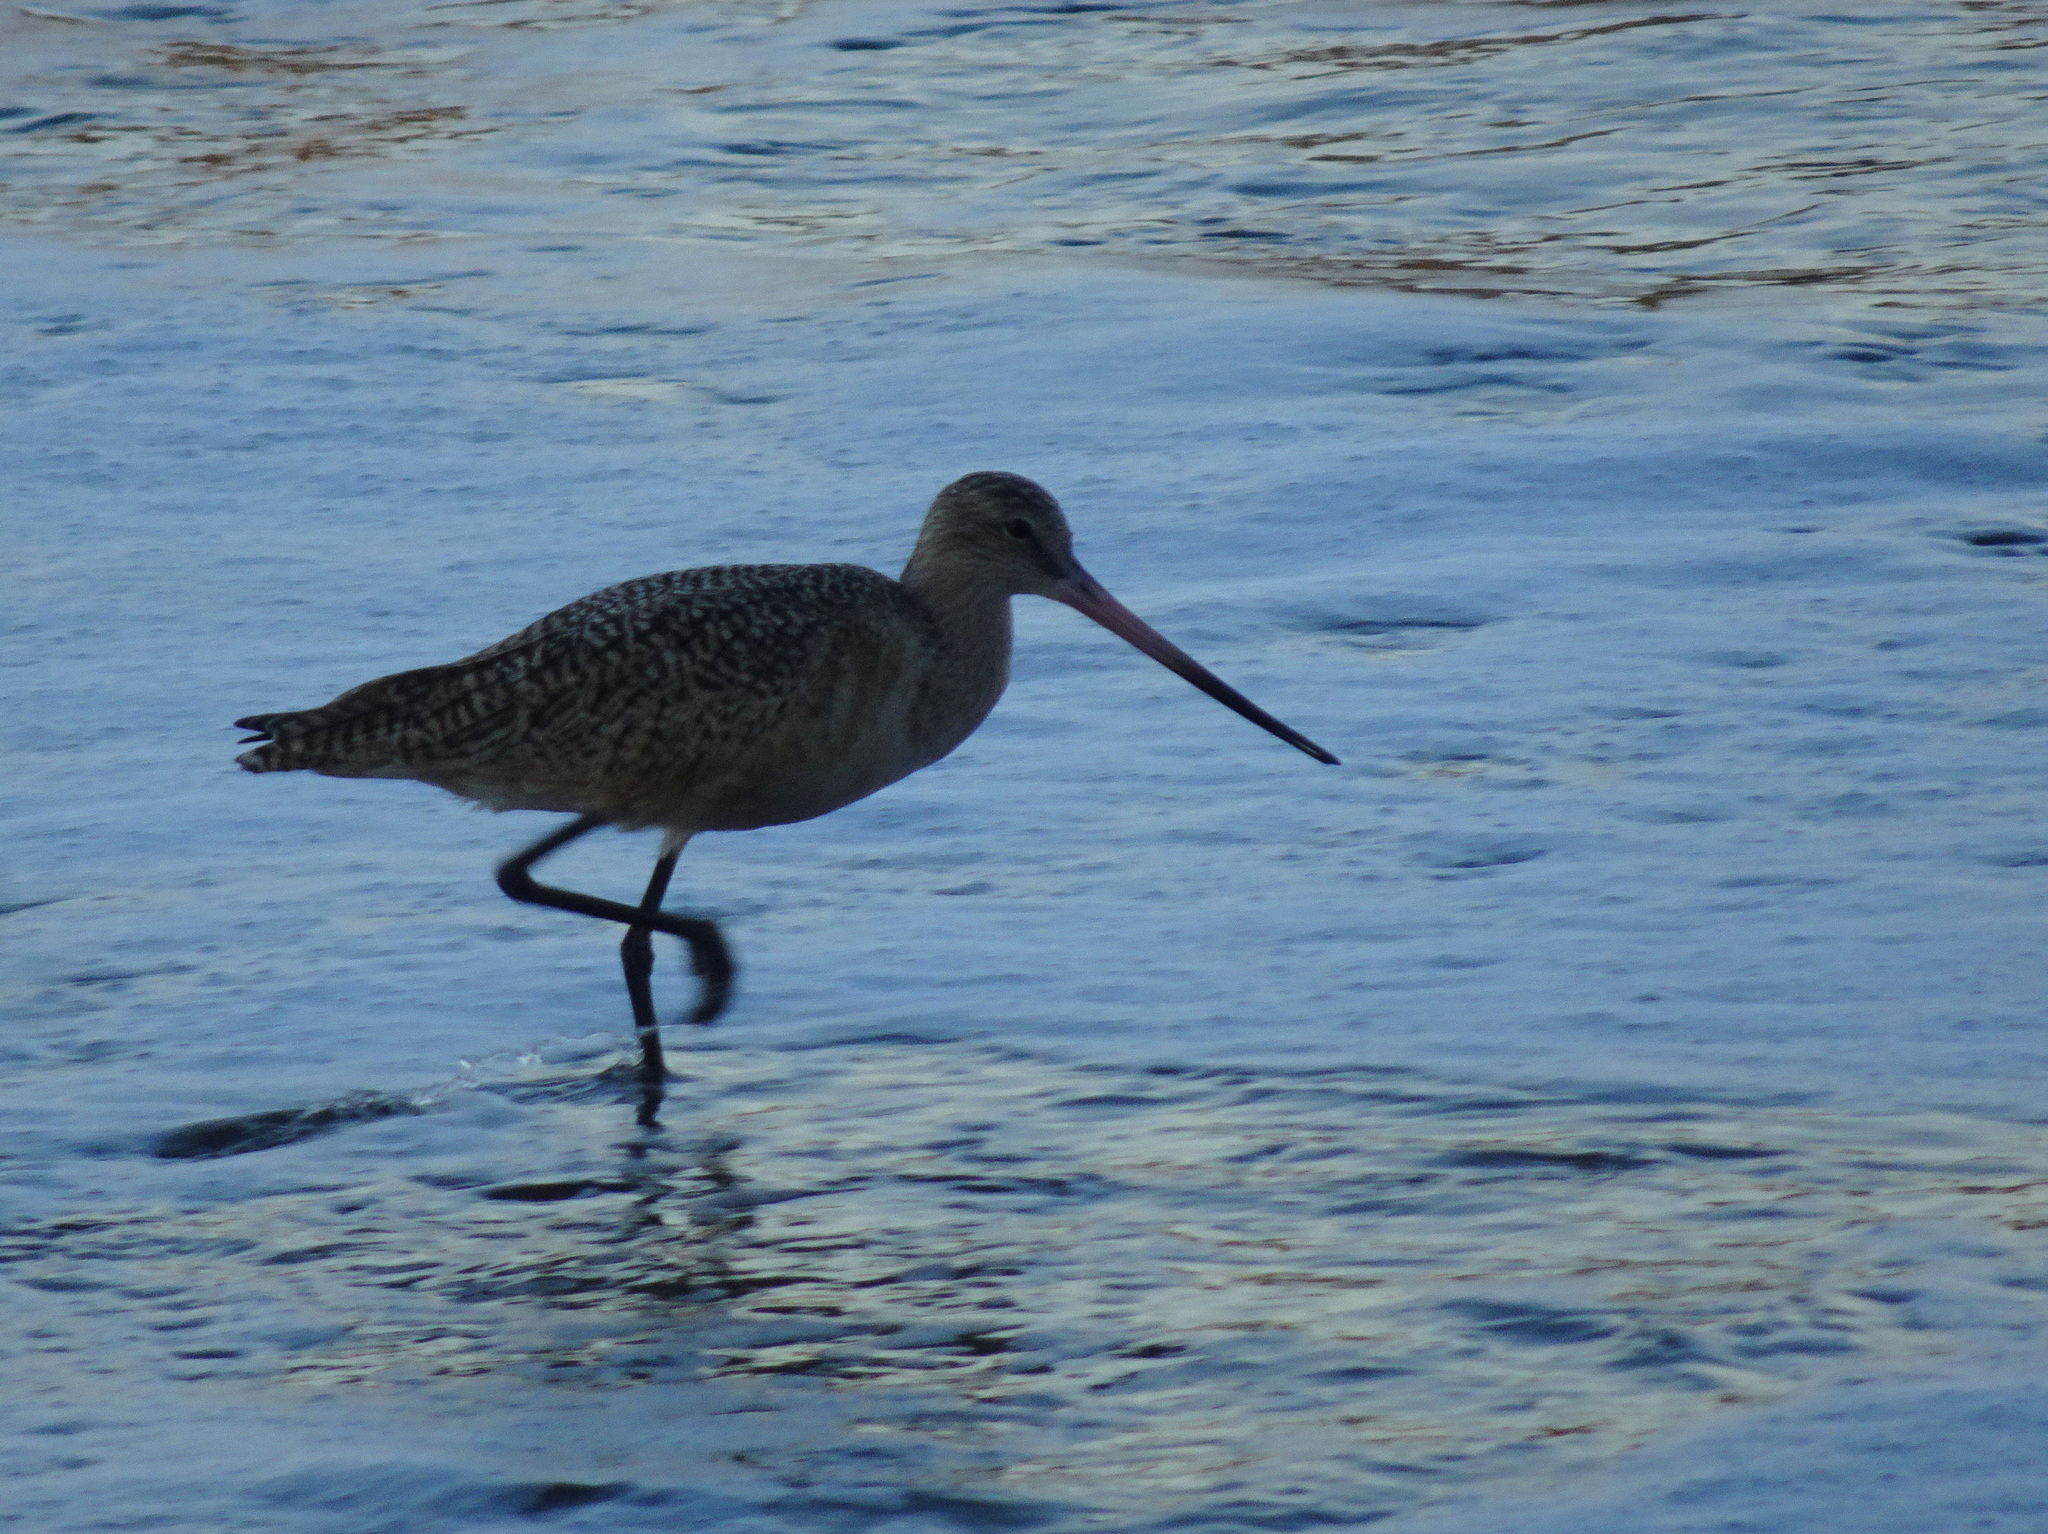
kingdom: Animalia
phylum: Chordata
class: Aves
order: Charadriiformes
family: Scolopacidae
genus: Limosa
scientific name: Limosa fedoa
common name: Marbled godwit
